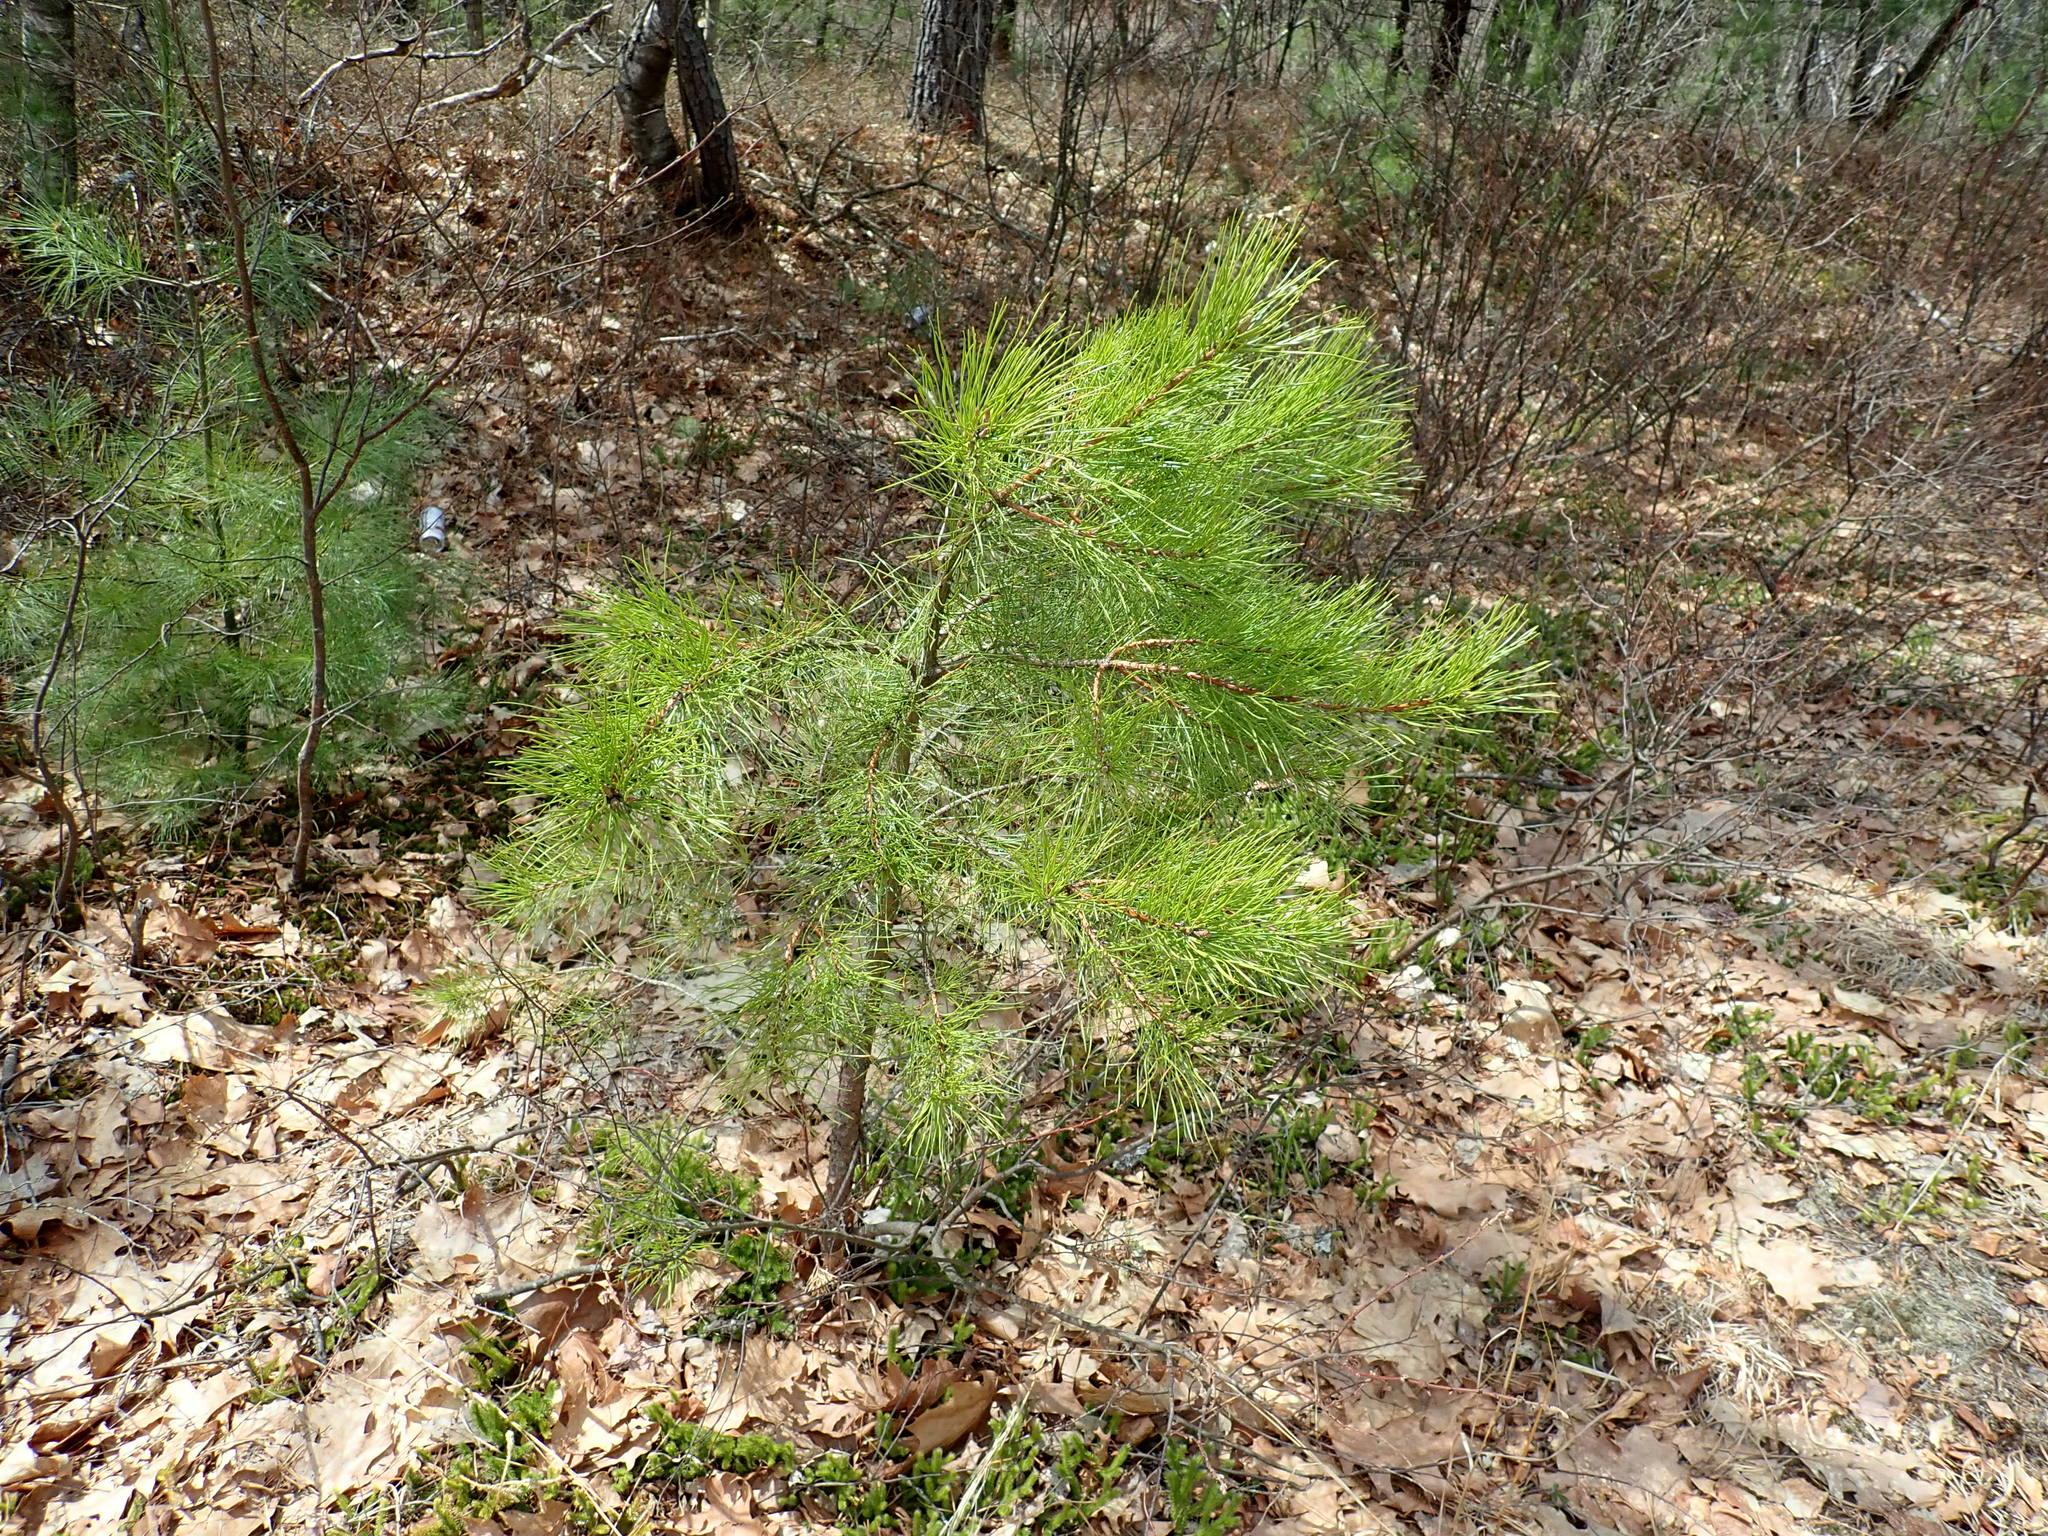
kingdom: Plantae
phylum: Tracheophyta
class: Pinopsida
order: Pinales
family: Pinaceae
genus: Pinus
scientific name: Pinus rigida
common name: Pitch pine
